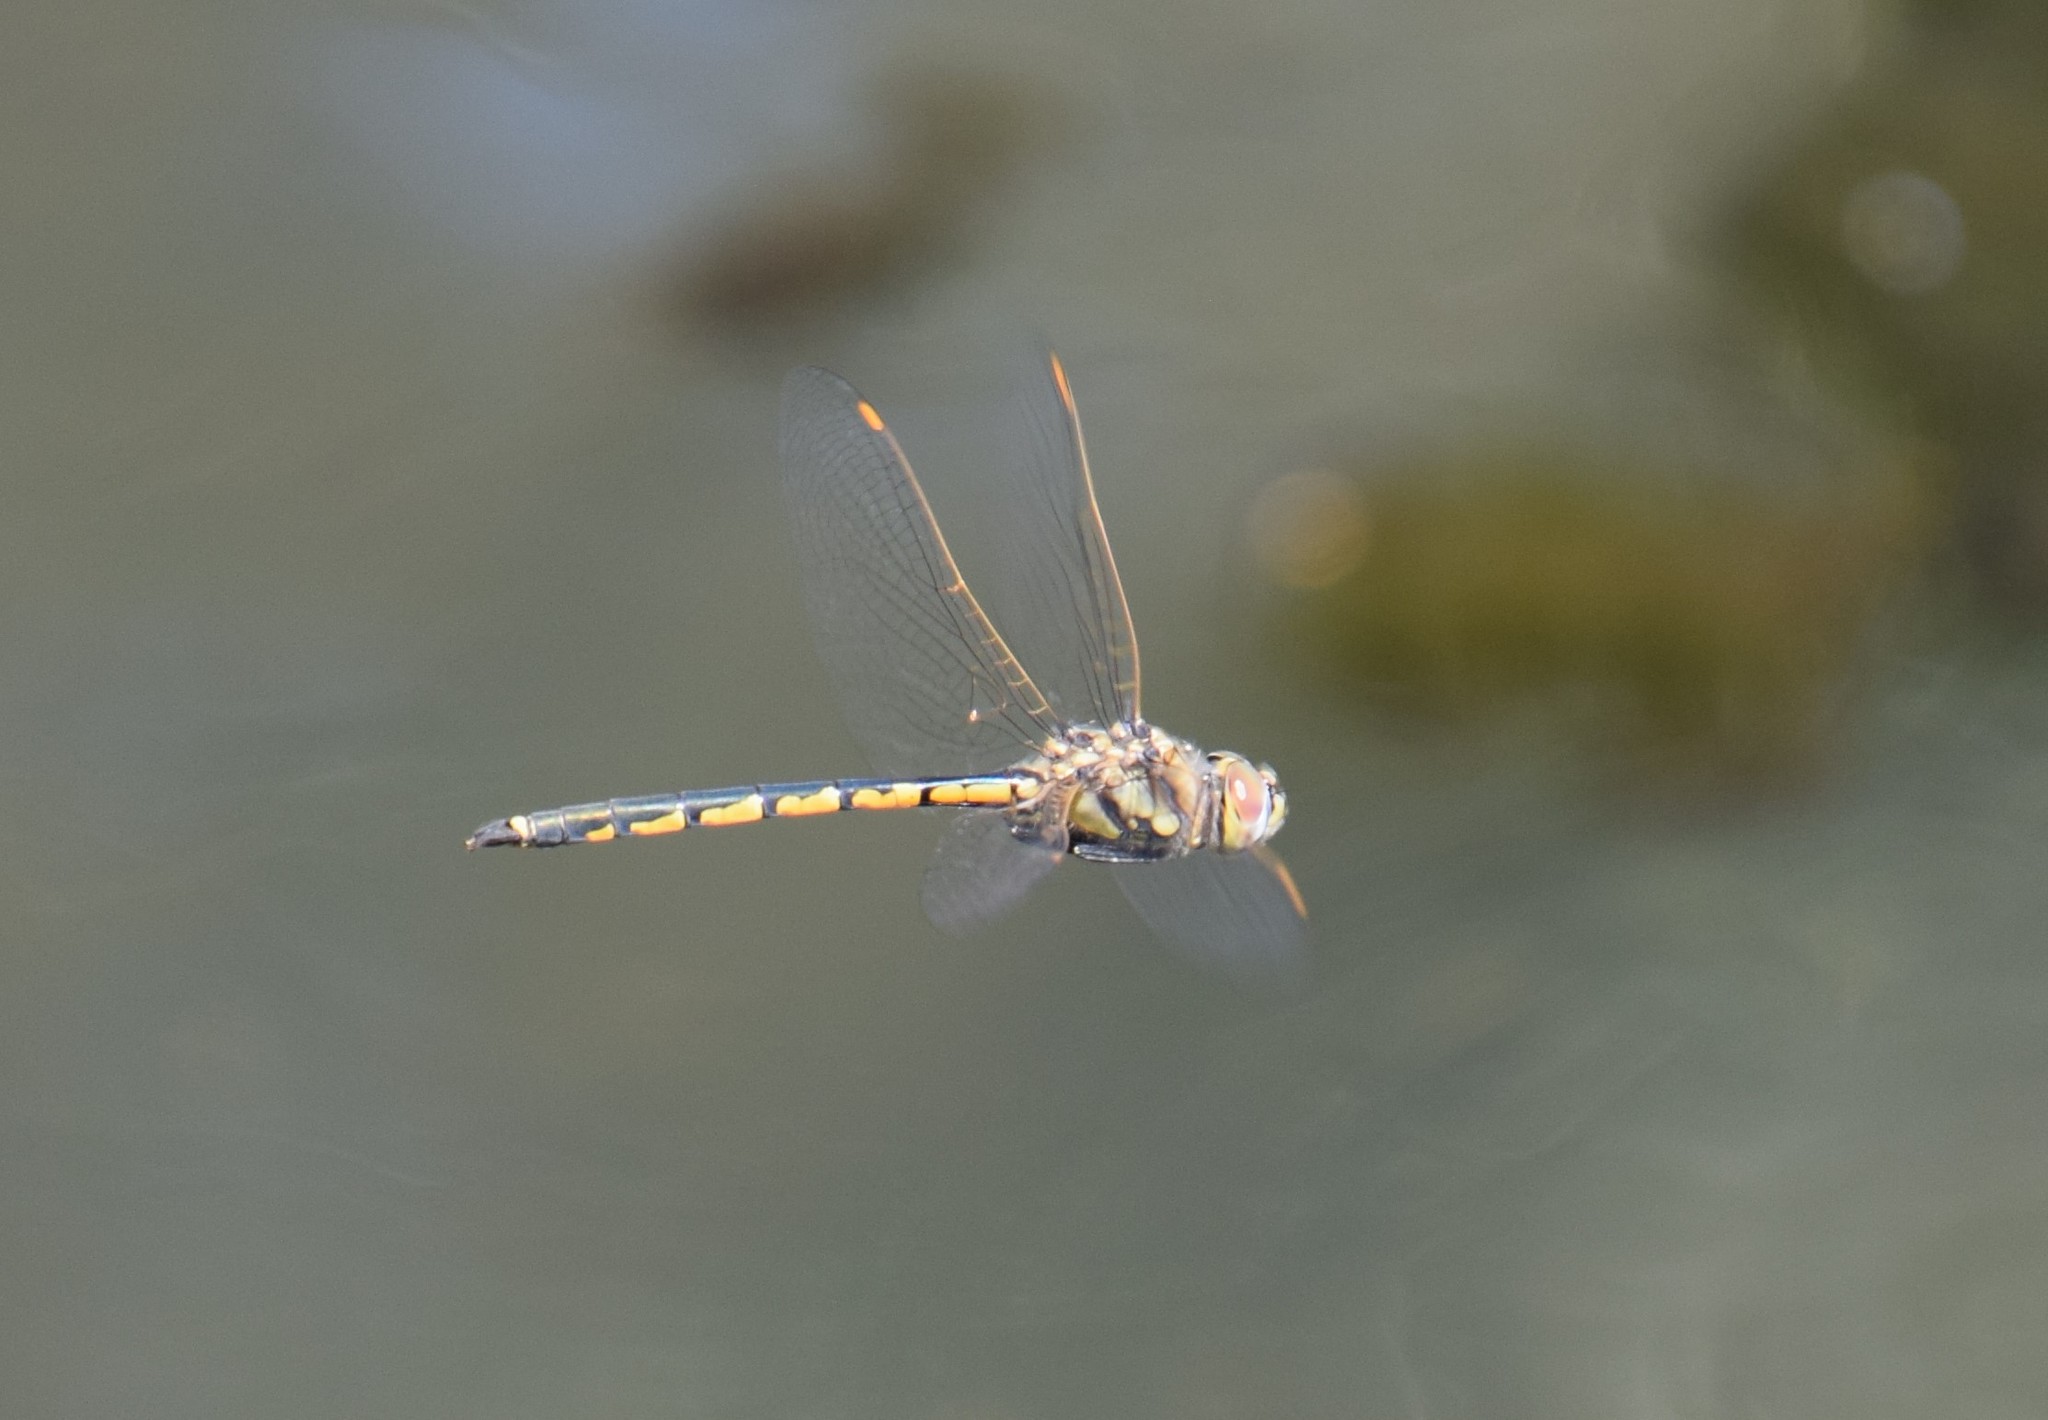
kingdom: Animalia
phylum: Arthropoda
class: Insecta
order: Odonata
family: Corduliidae
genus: Hemicordulia
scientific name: Hemicordulia tau
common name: Tau emerald
